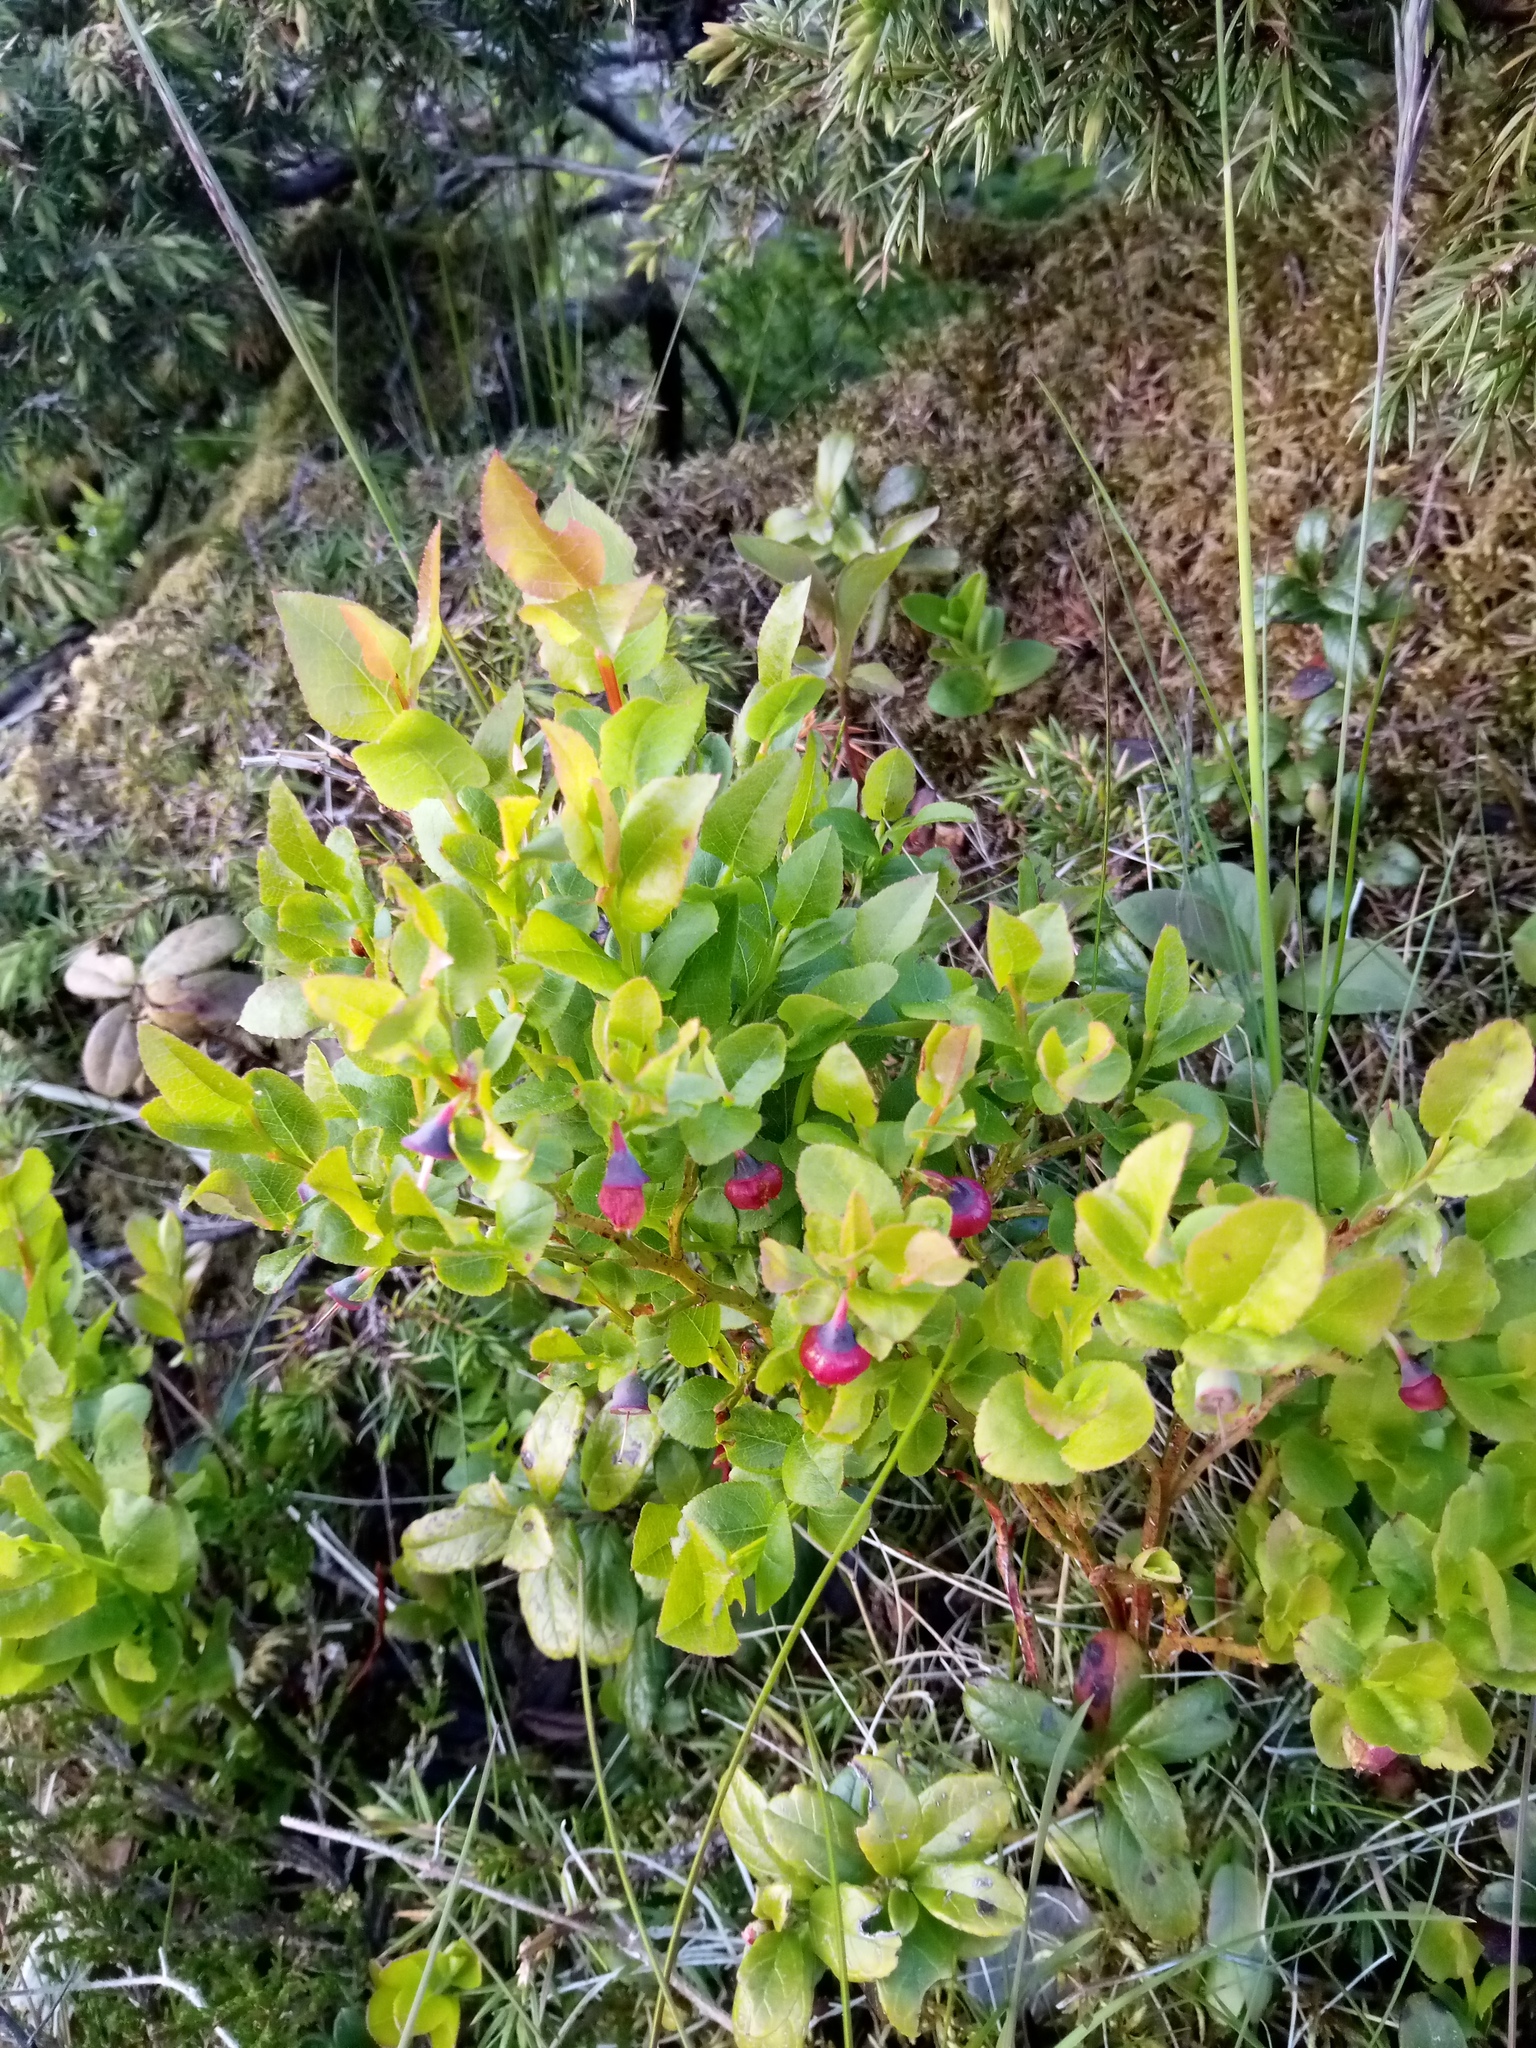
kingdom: Plantae
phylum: Tracheophyta
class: Magnoliopsida
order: Ericales
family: Ericaceae
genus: Vaccinium
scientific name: Vaccinium myrtillus
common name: Bilberry
